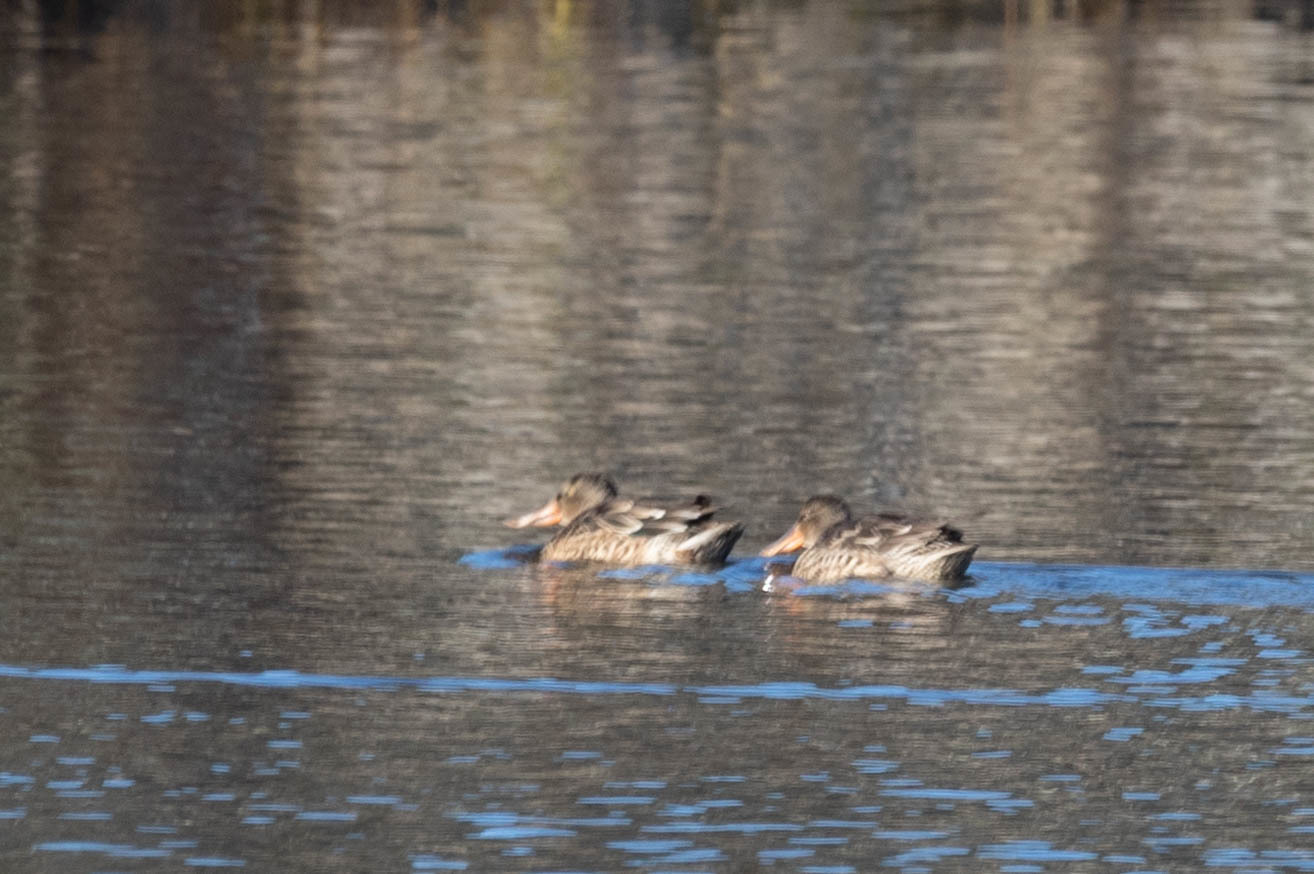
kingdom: Animalia
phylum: Chordata
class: Aves
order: Anseriformes
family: Anatidae
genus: Spatula
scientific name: Spatula clypeata
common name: Northern shoveler
